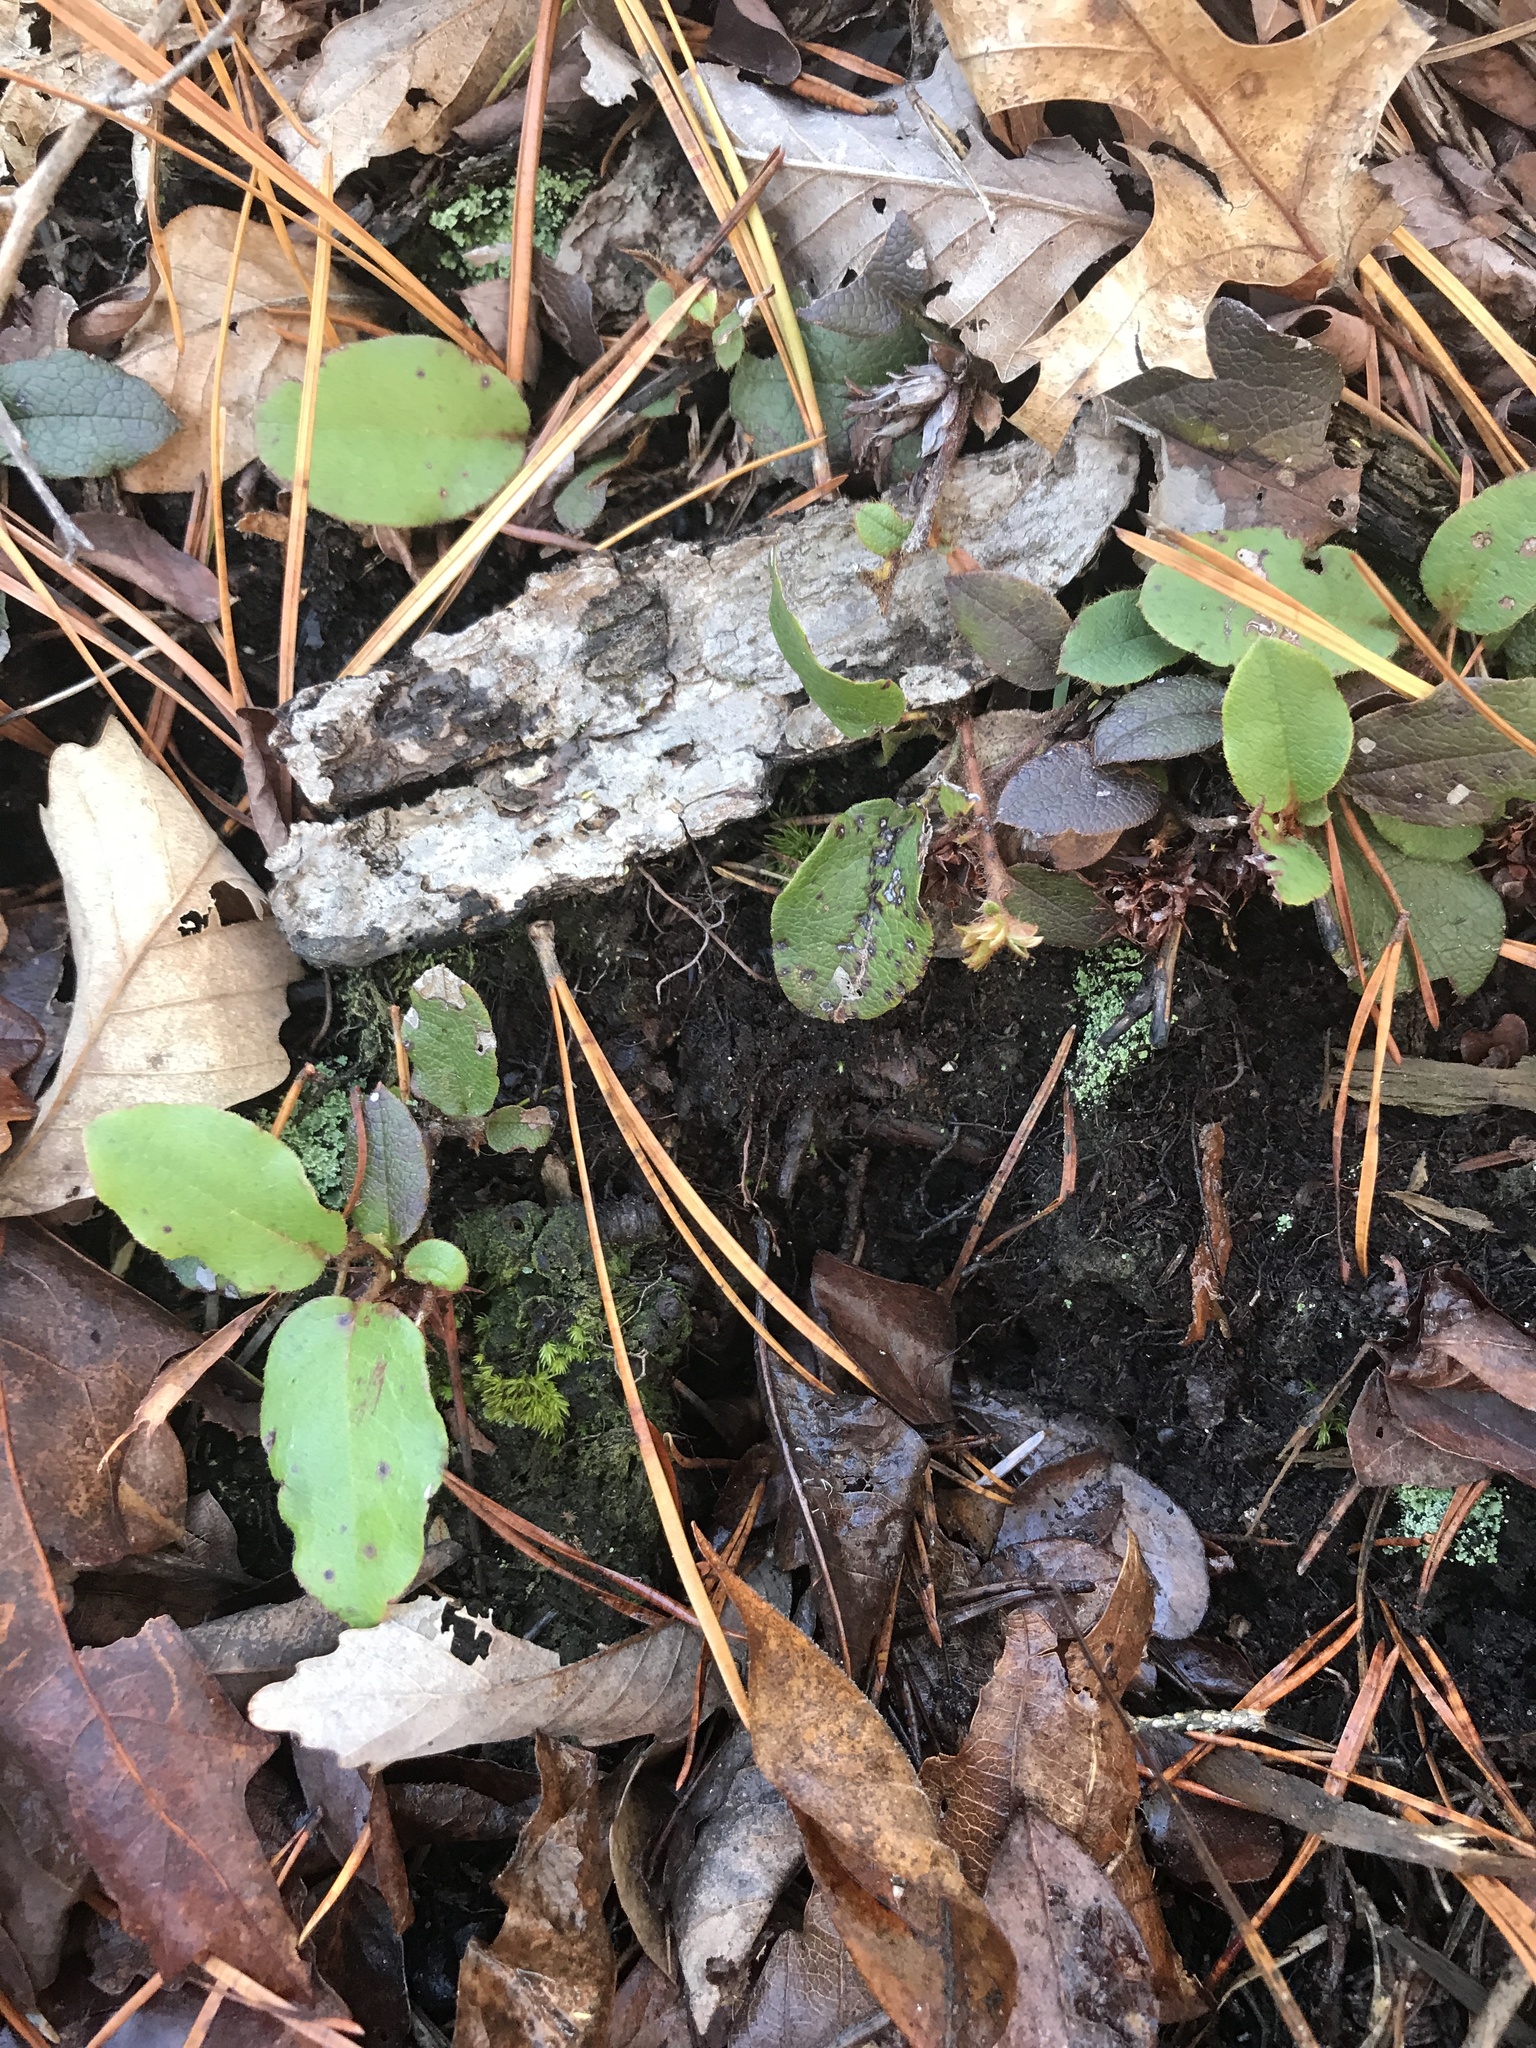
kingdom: Plantae
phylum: Tracheophyta
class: Magnoliopsida
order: Ericales
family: Ericaceae
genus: Epigaea
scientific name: Epigaea repens
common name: Gravelroot
